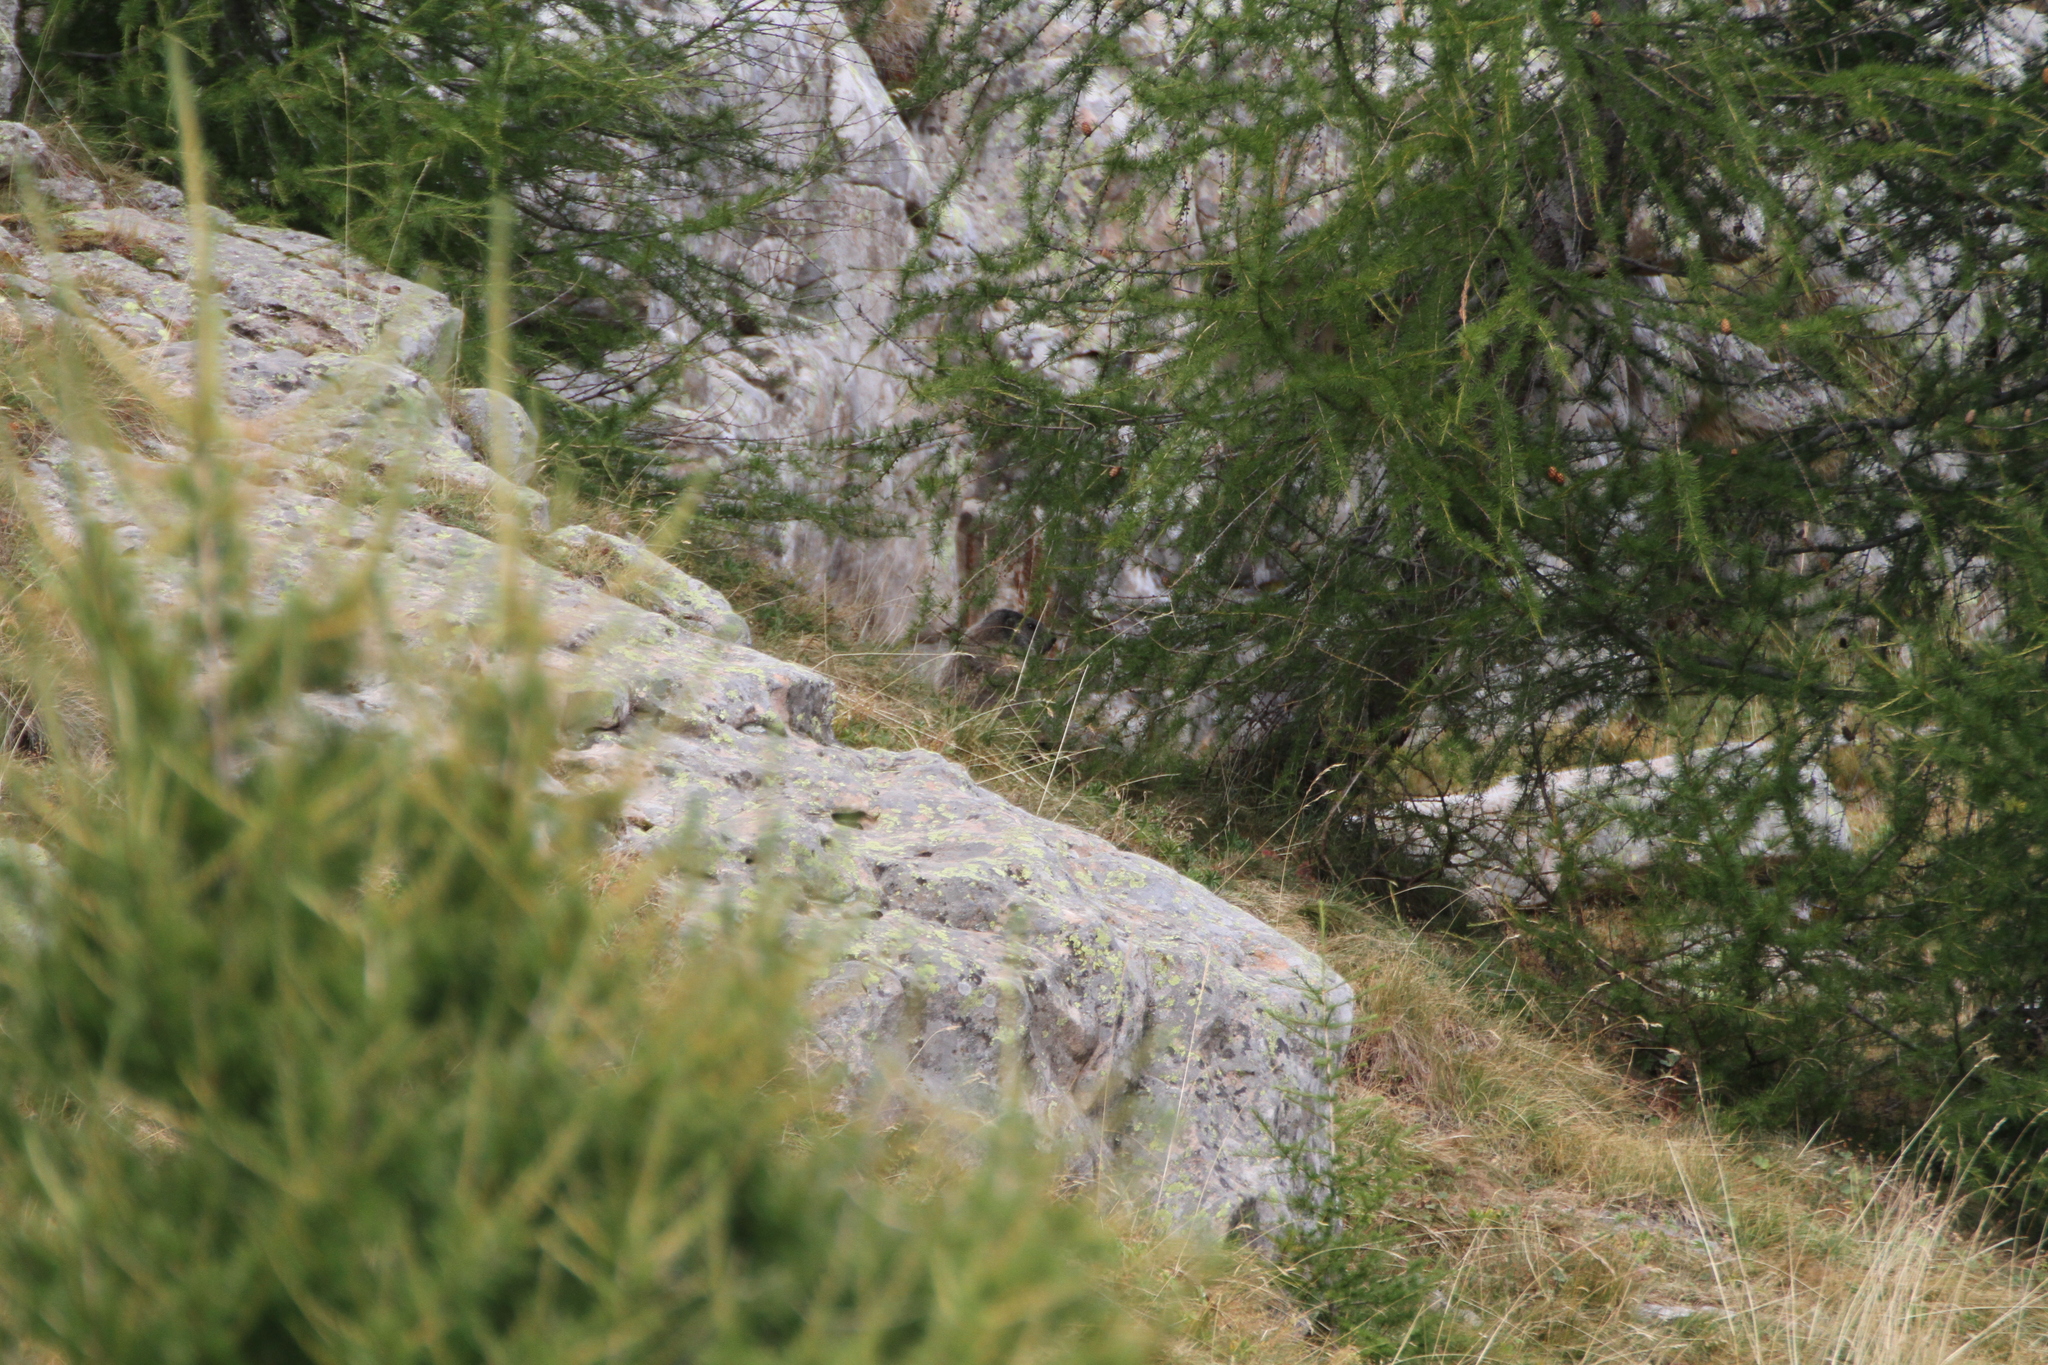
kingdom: Animalia
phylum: Chordata
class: Mammalia
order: Rodentia
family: Sciuridae
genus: Marmota
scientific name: Marmota marmota
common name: Alpine marmot
